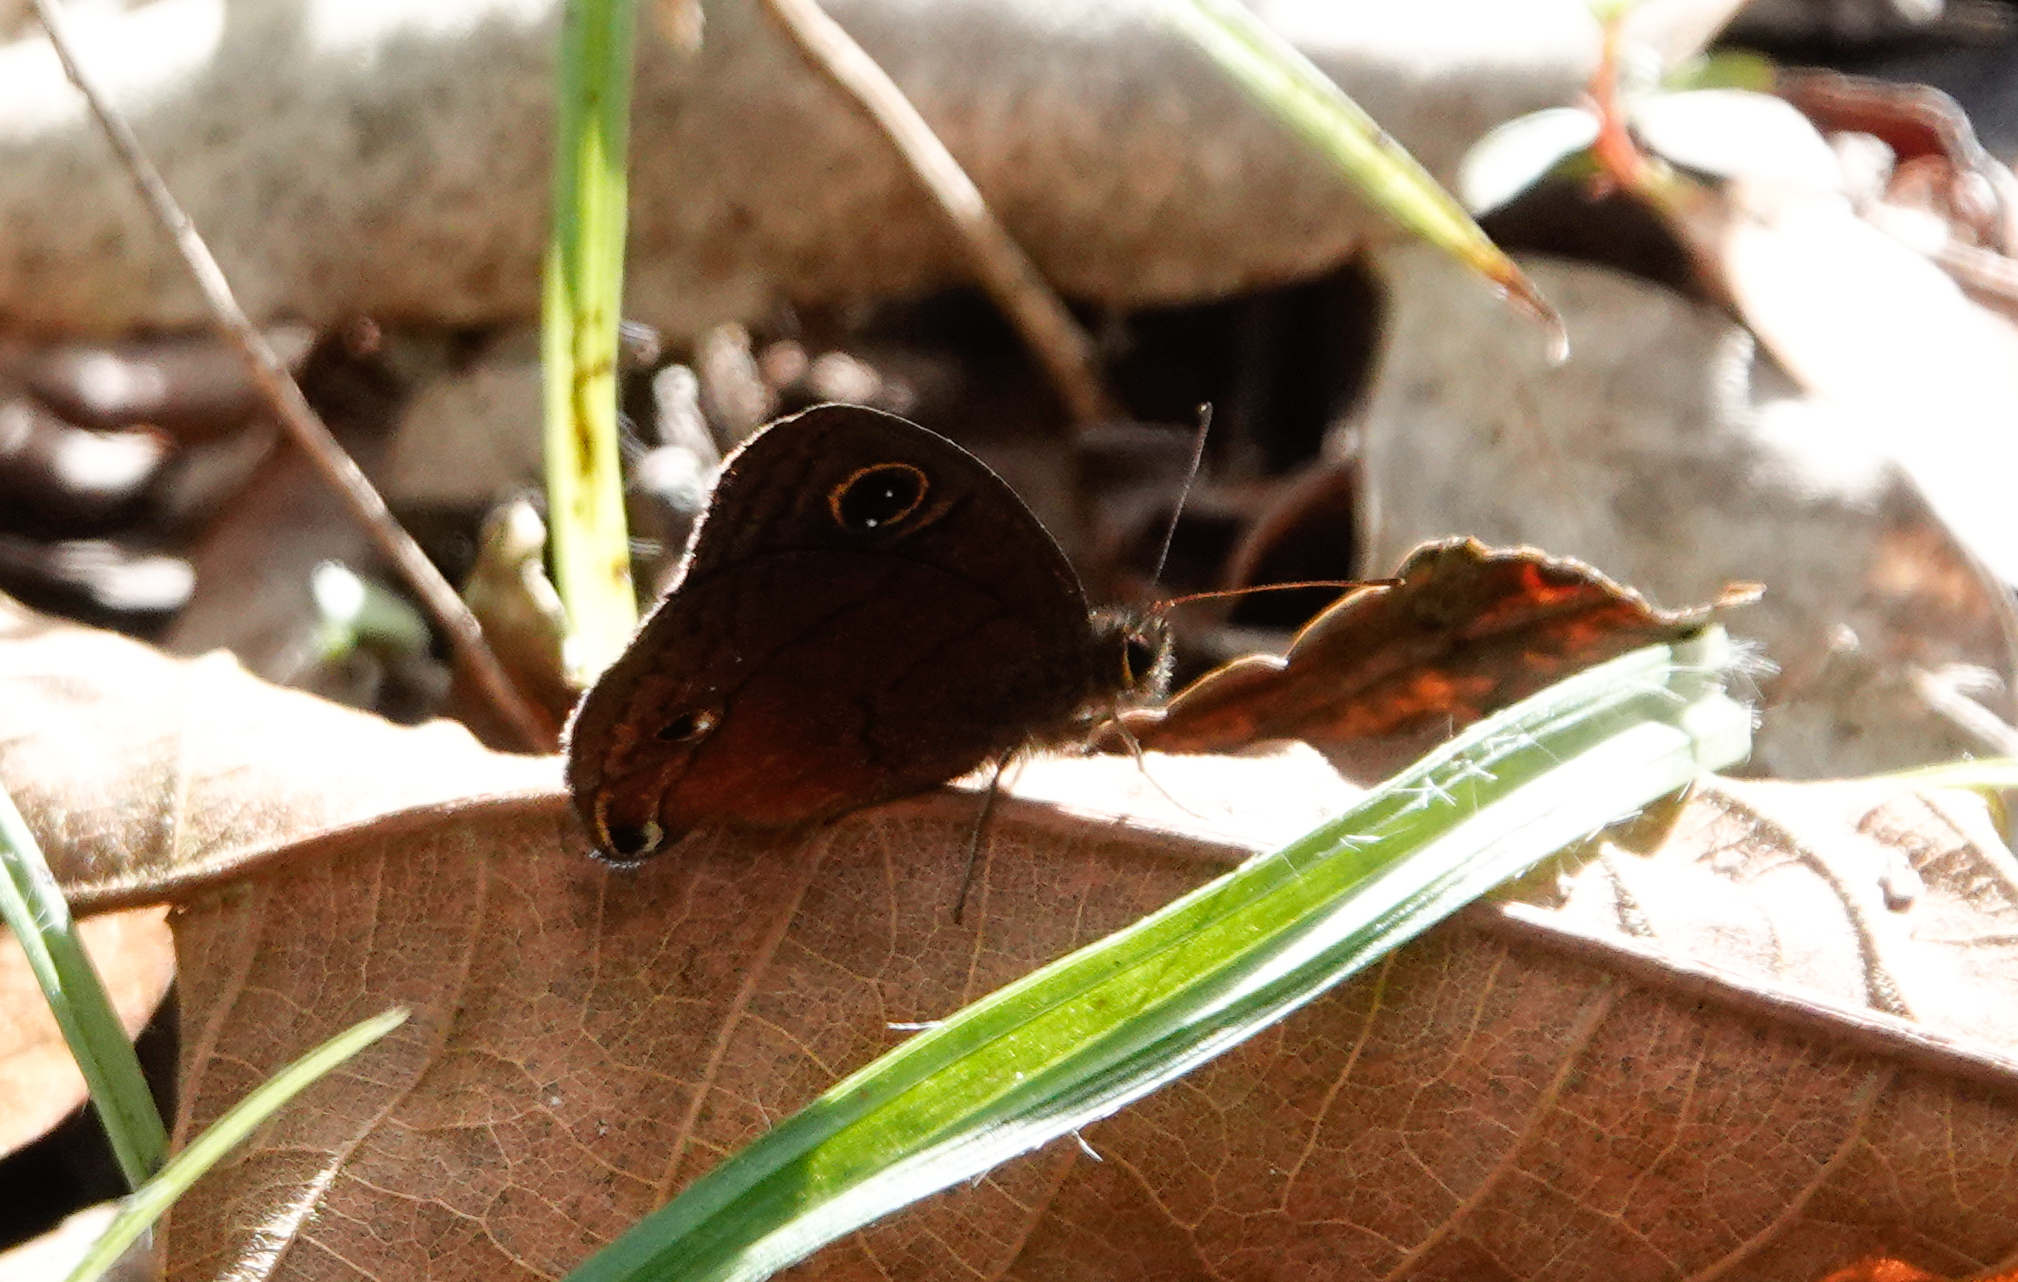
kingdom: Animalia
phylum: Arthropoda
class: Insecta
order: Lepidoptera
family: Nymphalidae
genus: Calisto
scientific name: Calisto nubila
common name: Puerto rican calisto
